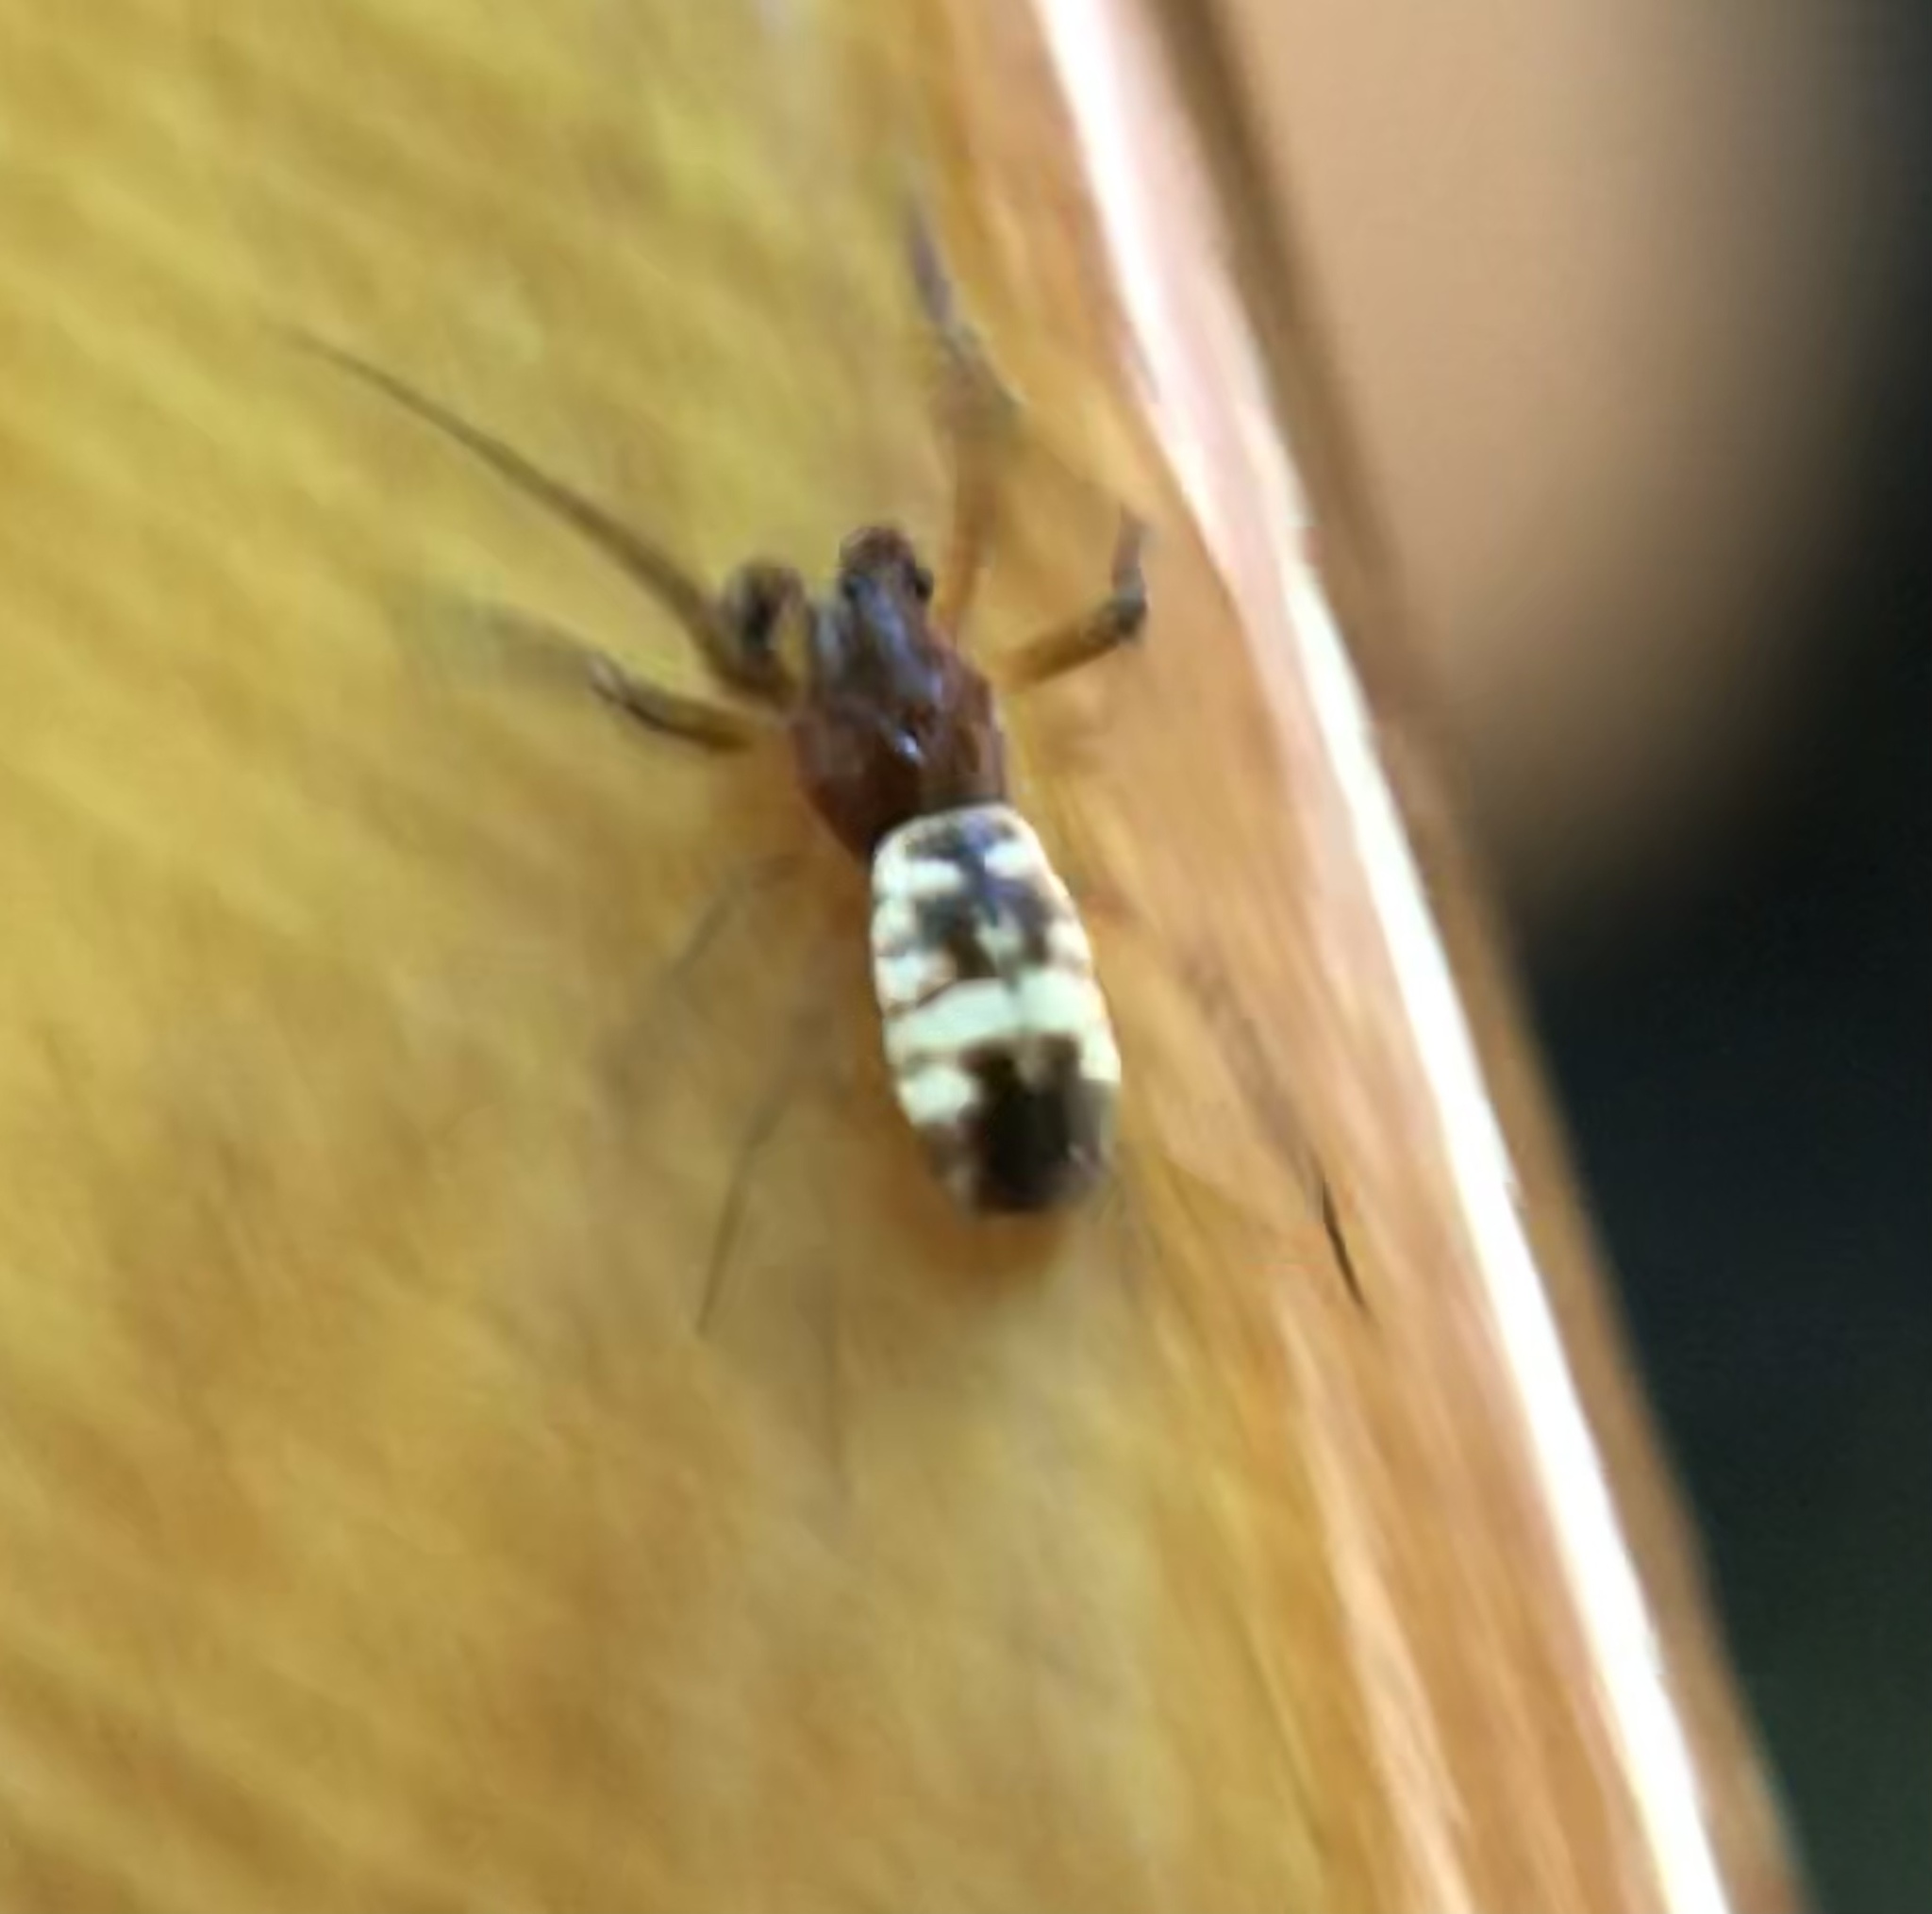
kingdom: Animalia
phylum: Arthropoda
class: Arachnida
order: Araneae
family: Araneidae
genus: Micrathena
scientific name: Micrathena mitrata
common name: Orb weavers
